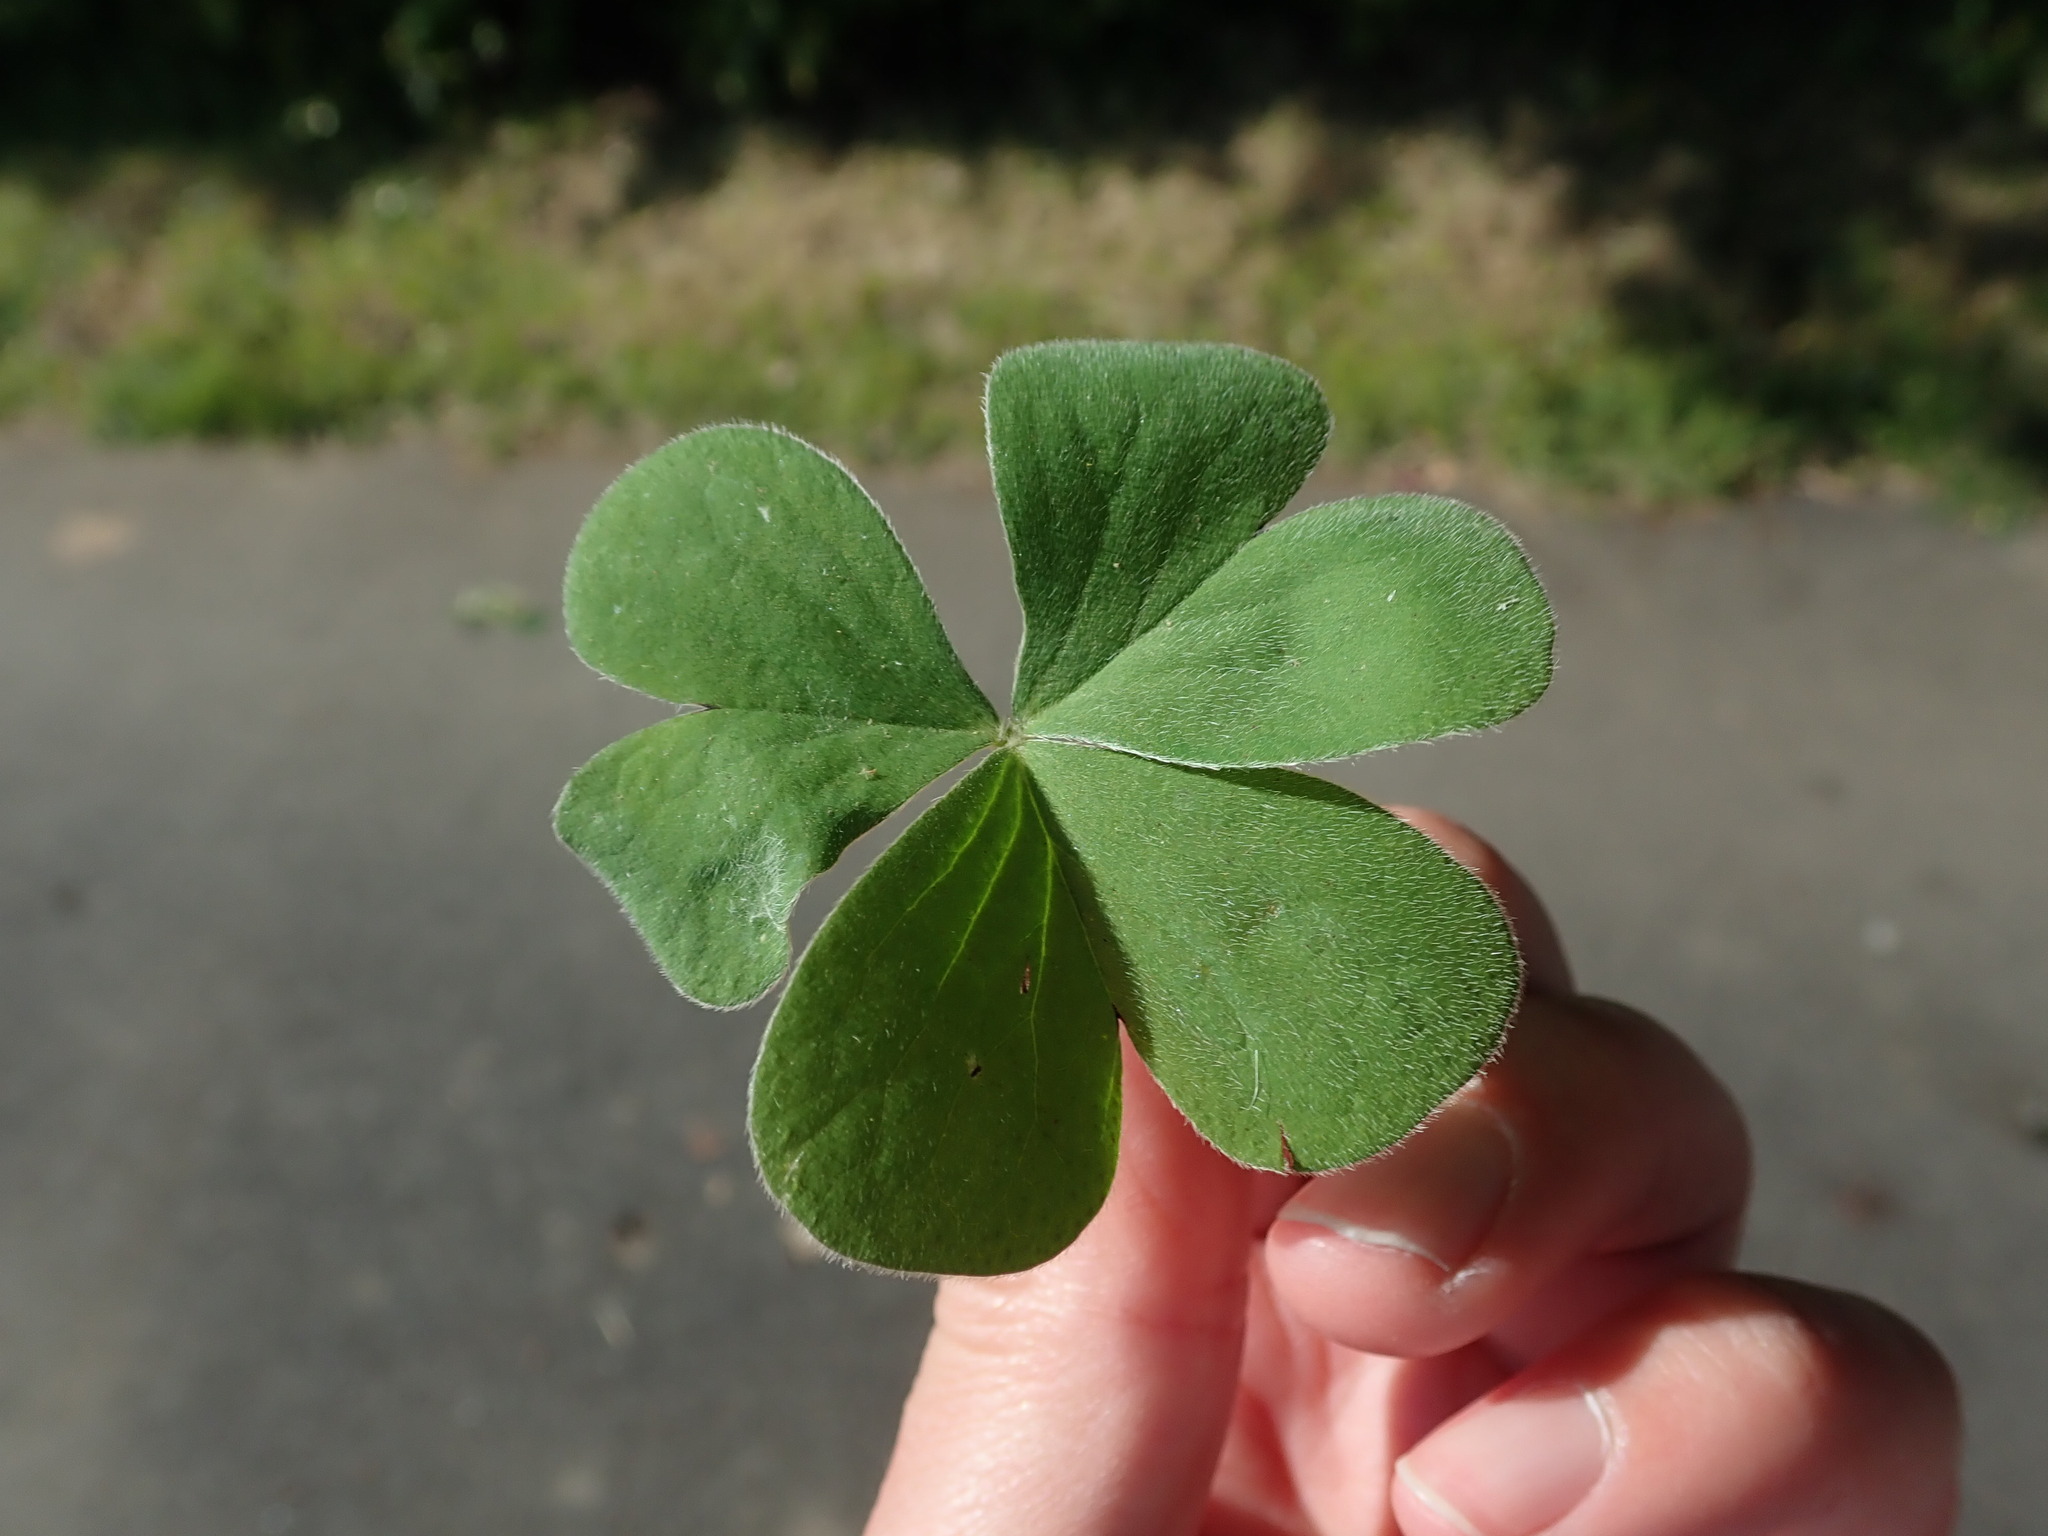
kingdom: Plantae
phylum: Tracheophyta
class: Magnoliopsida
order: Oxalidales
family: Oxalidaceae
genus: Oxalis
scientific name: Oxalis articulata
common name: Pink-sorrel
